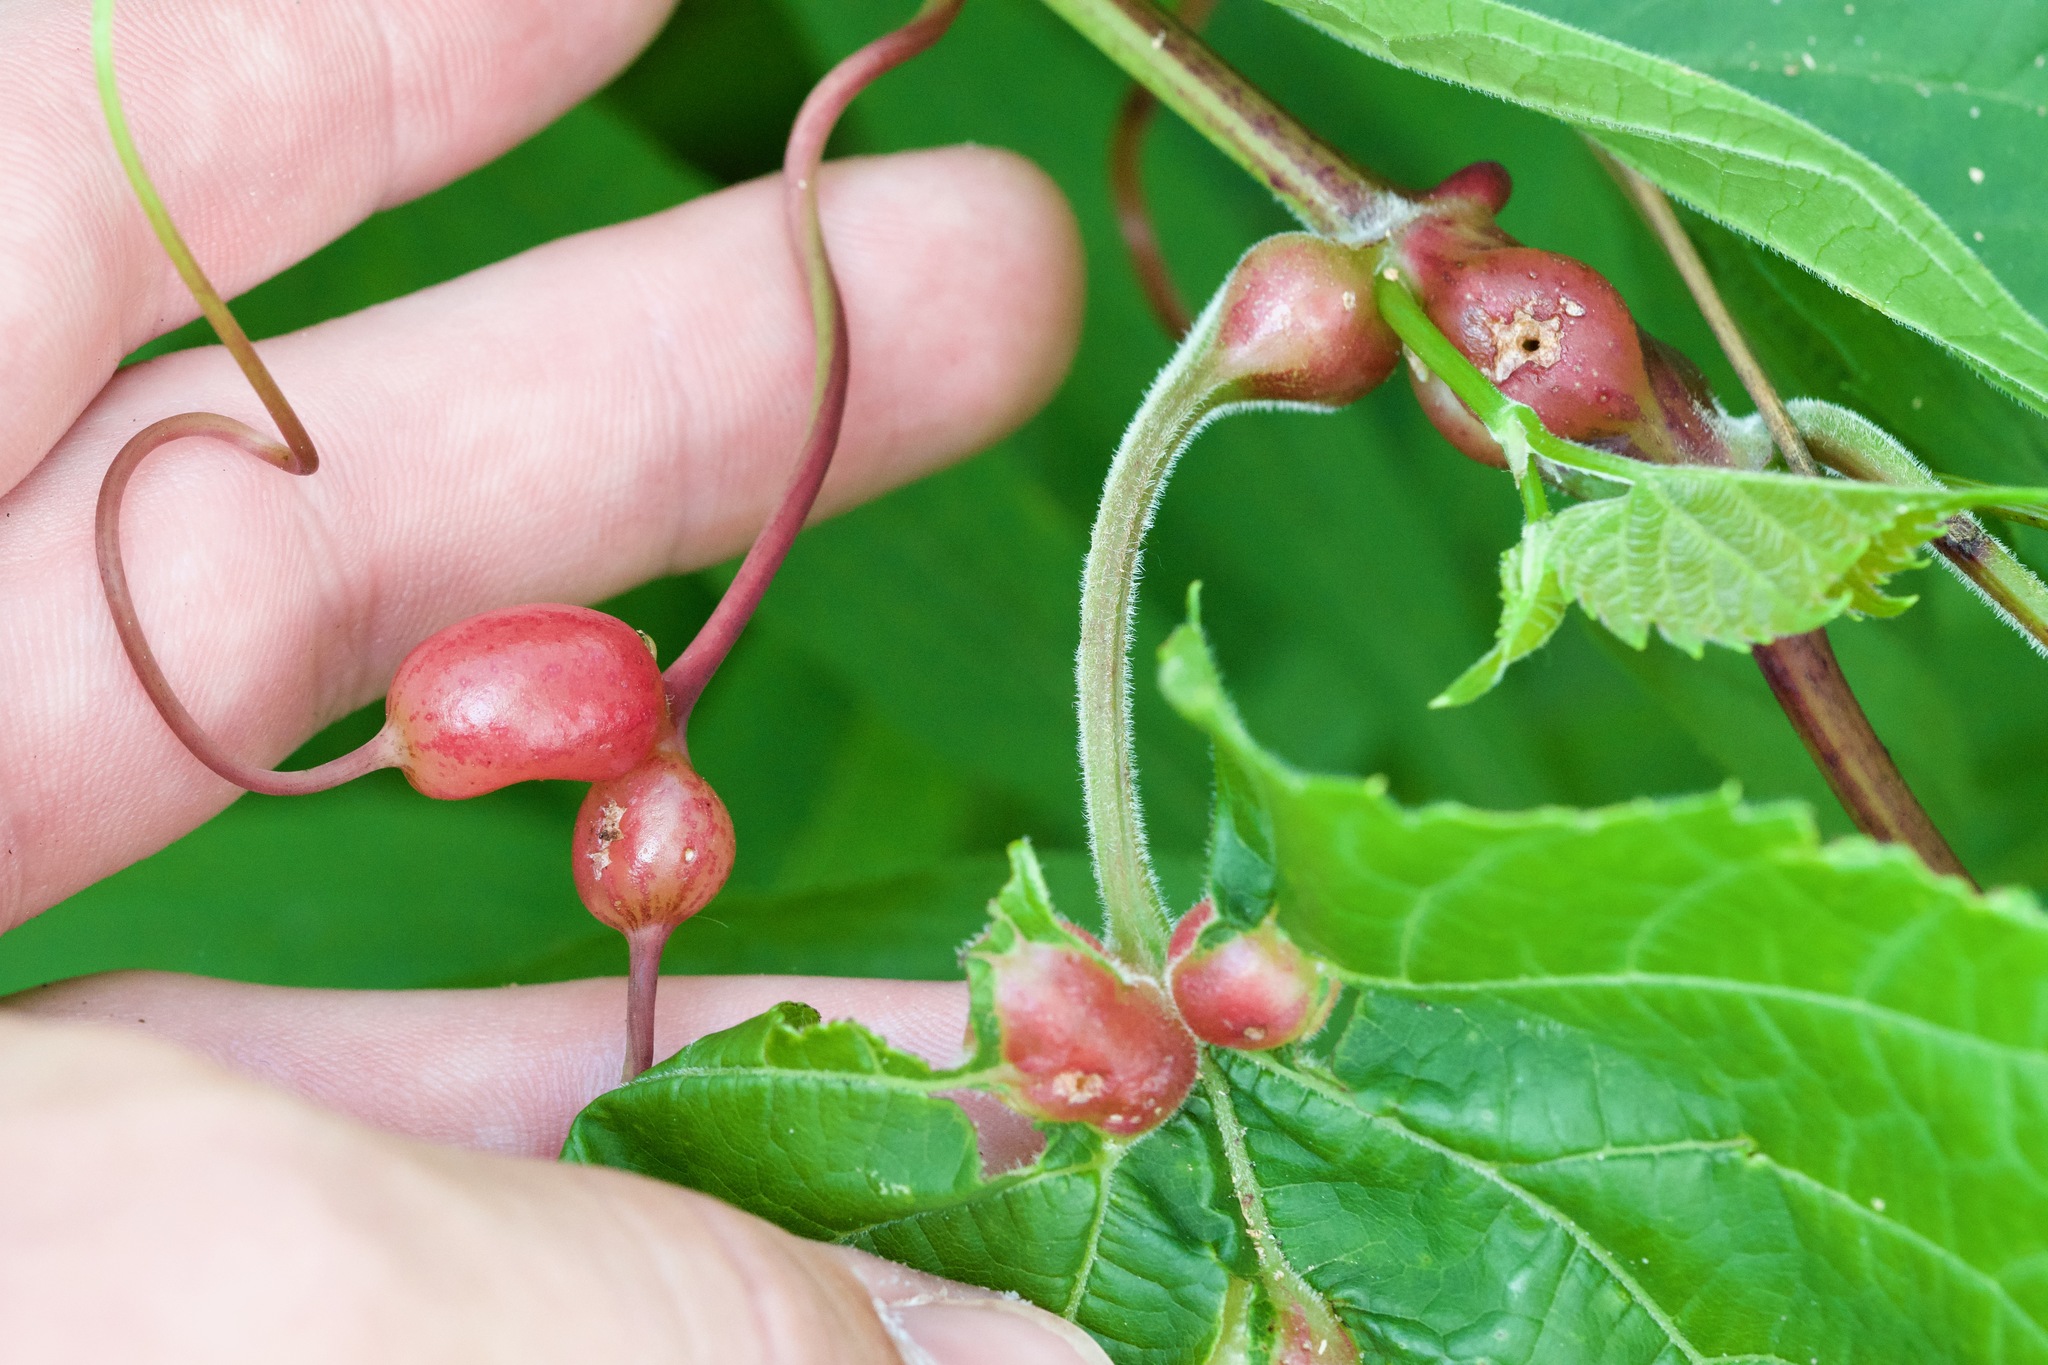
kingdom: Animalia
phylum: Arthropoda
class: Insecta
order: Diptera
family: Cecidomyiidae
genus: Vitisiella
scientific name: Vitisiella brevicauda
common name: Grape tumid gallmaker midge
